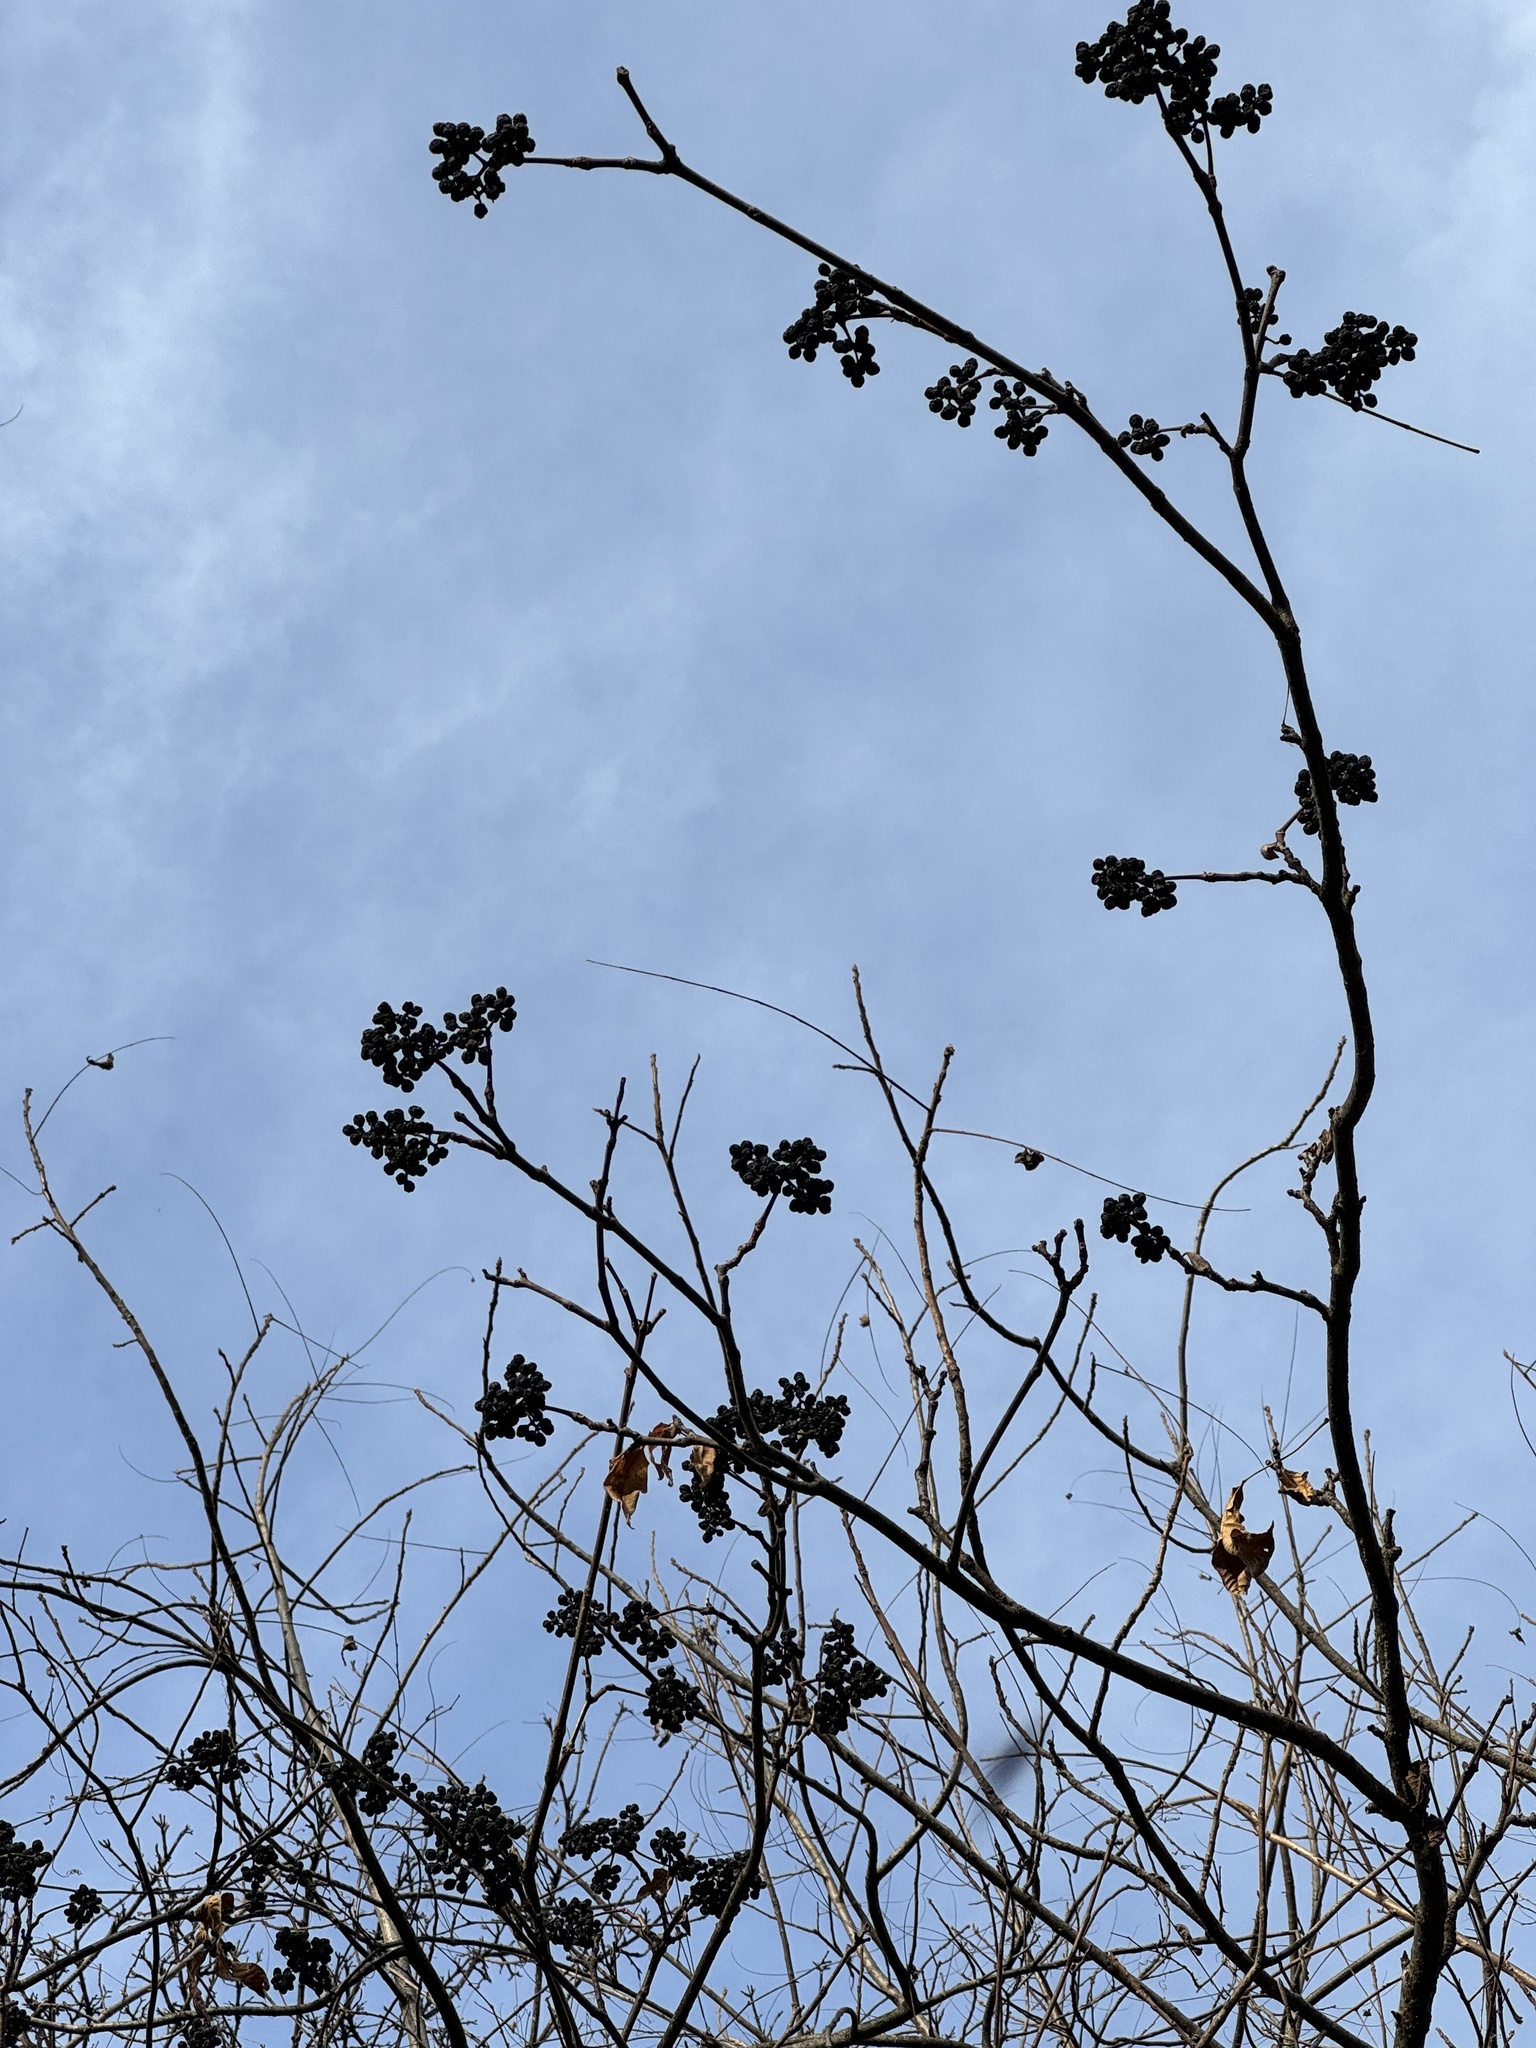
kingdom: Plantae
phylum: Tracheophyta
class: Magnoliopsida
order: Sapindales
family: Rutaceae
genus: Phellodendron
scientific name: Phellodendron amurense
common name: Amur corktree
